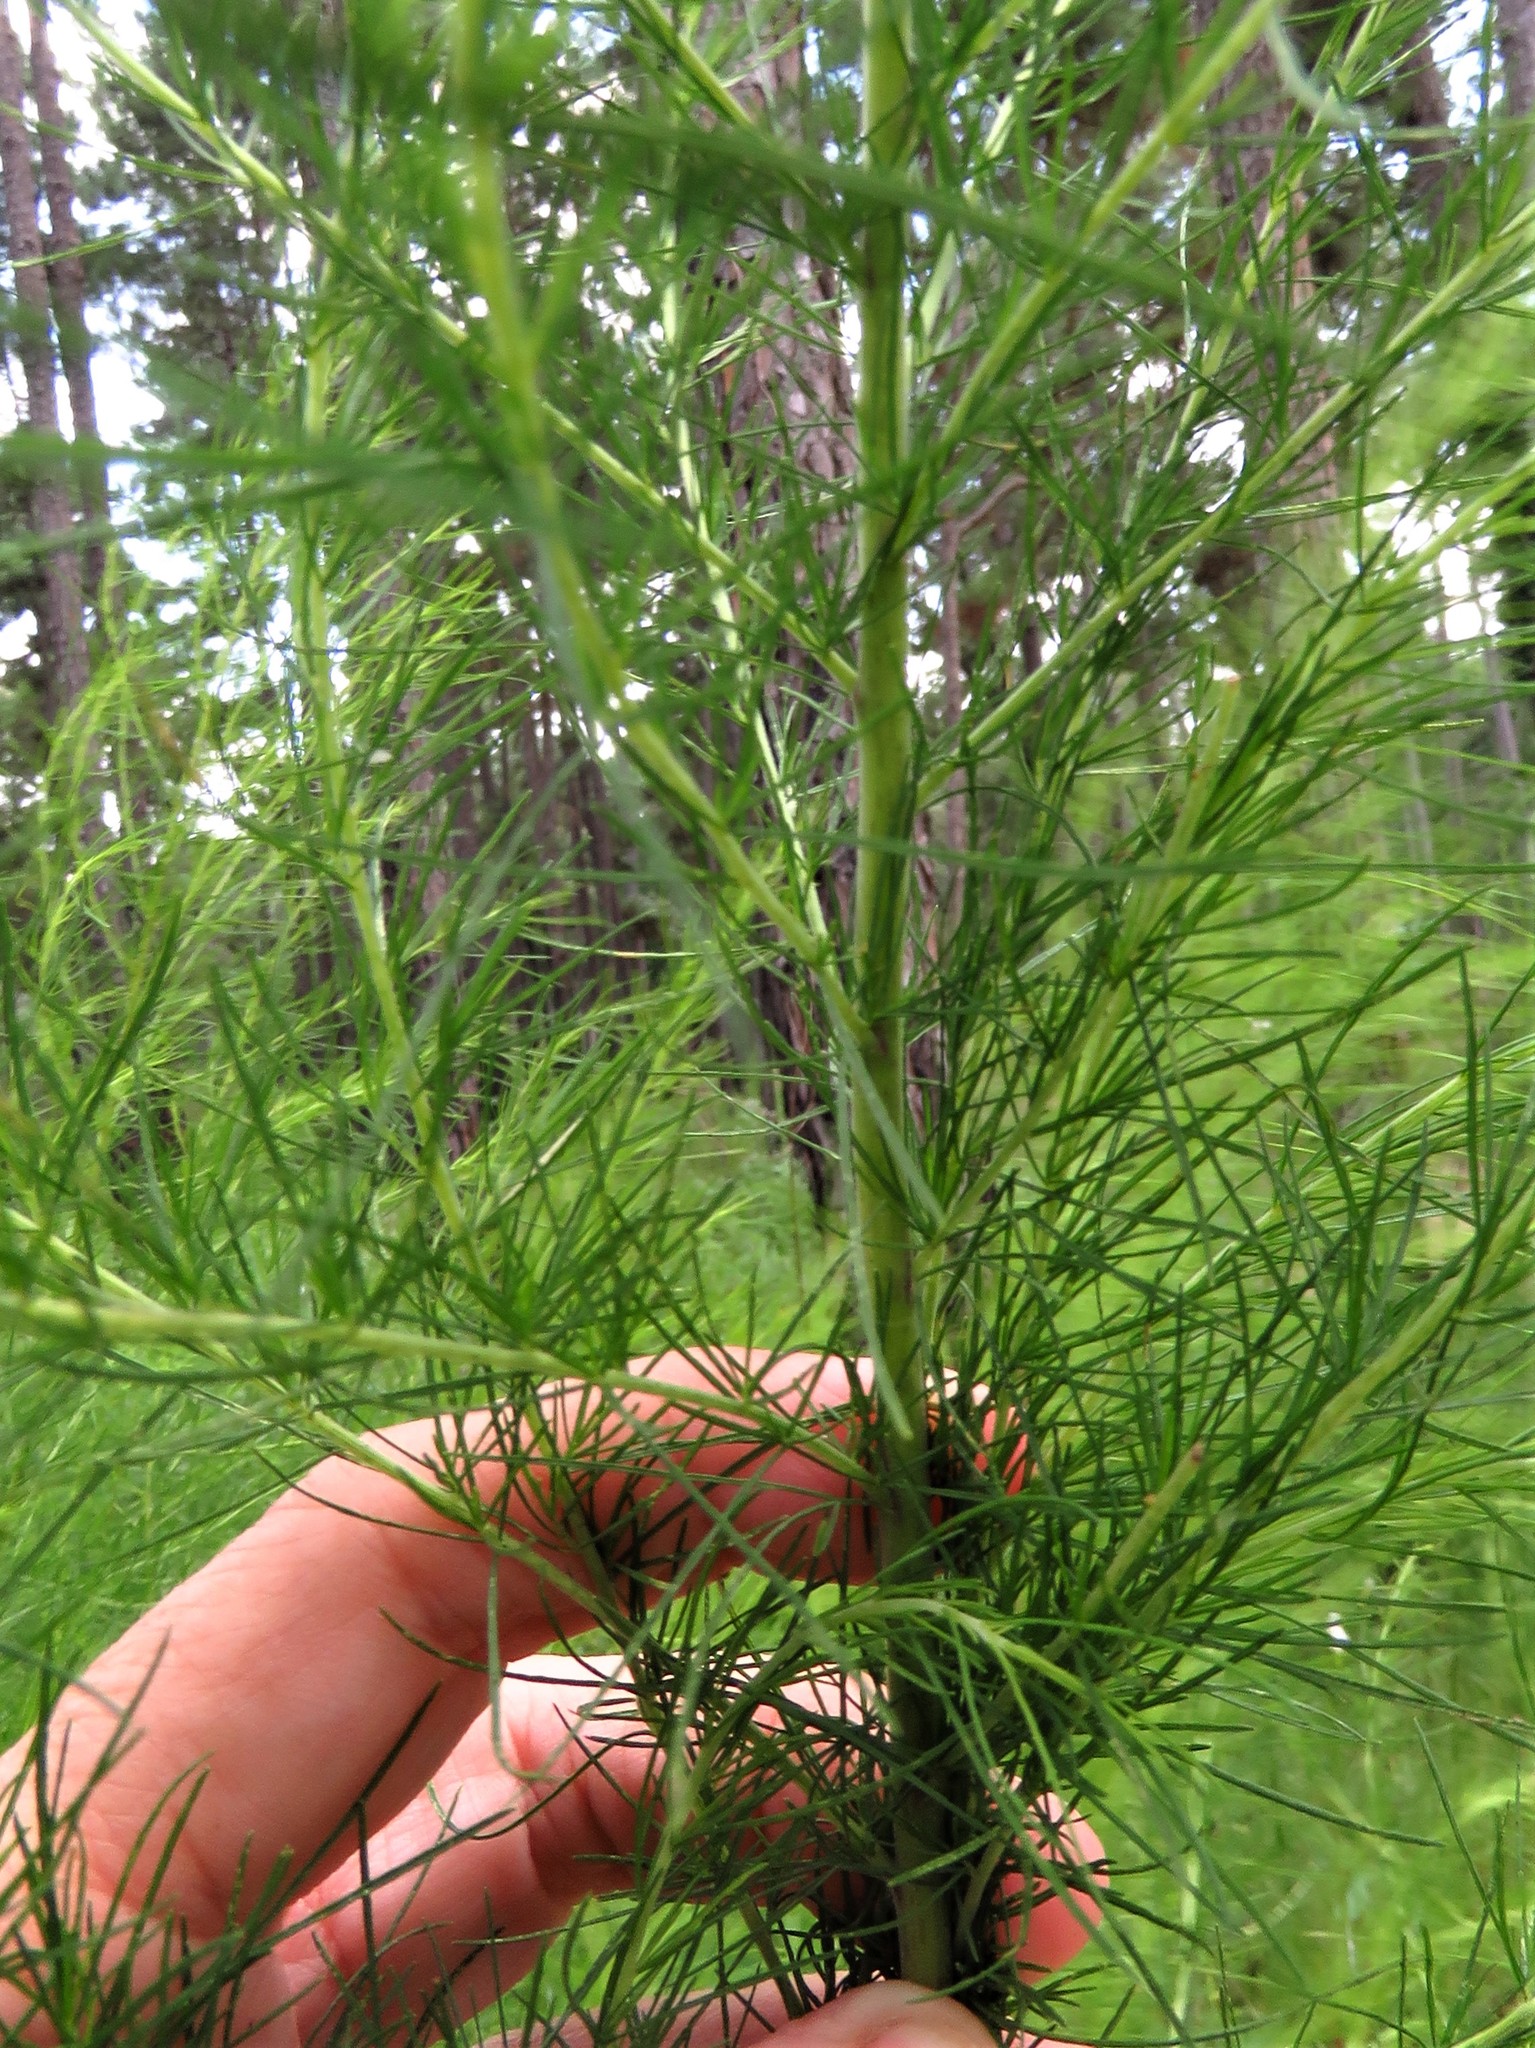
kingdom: Plantae
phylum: Tracheophyta
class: Magnoliopsida
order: Asterales
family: Asteraceae
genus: Eupatorium
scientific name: Eupatorium capillifolium
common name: Dog-fennel
